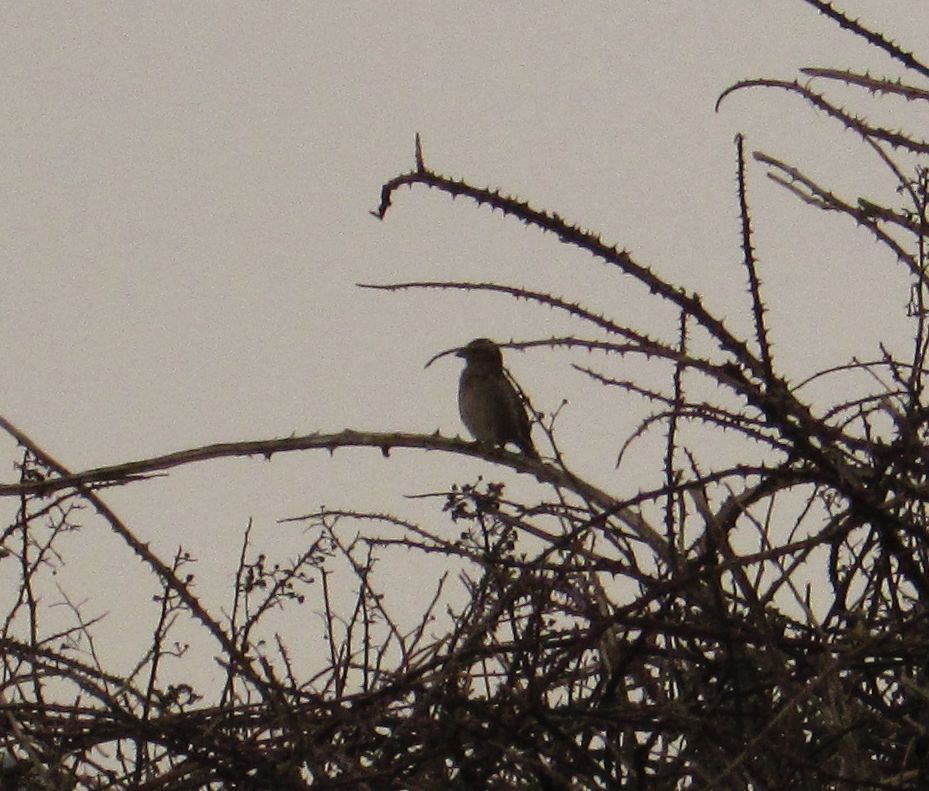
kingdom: Animalia
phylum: Chordata
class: Aves
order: Passeriformes
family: Fringillidae
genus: Linaria
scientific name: Linaria cannabina
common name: Common linnet
